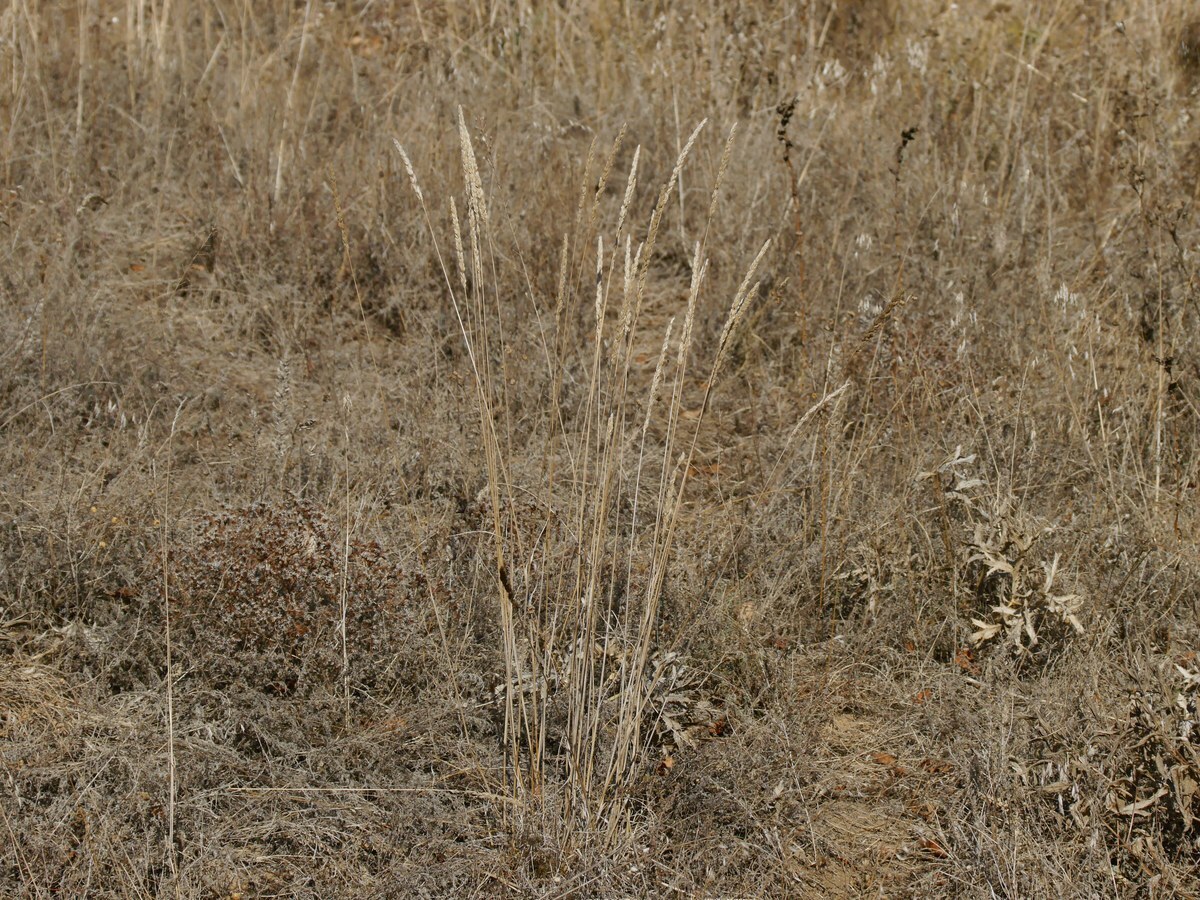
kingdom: Plantae
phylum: Tracheophyta
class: Liliopsida
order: Poales
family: Poaceae
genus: Koeleria
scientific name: Koeleria macrantha
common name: Crested hair-grass
